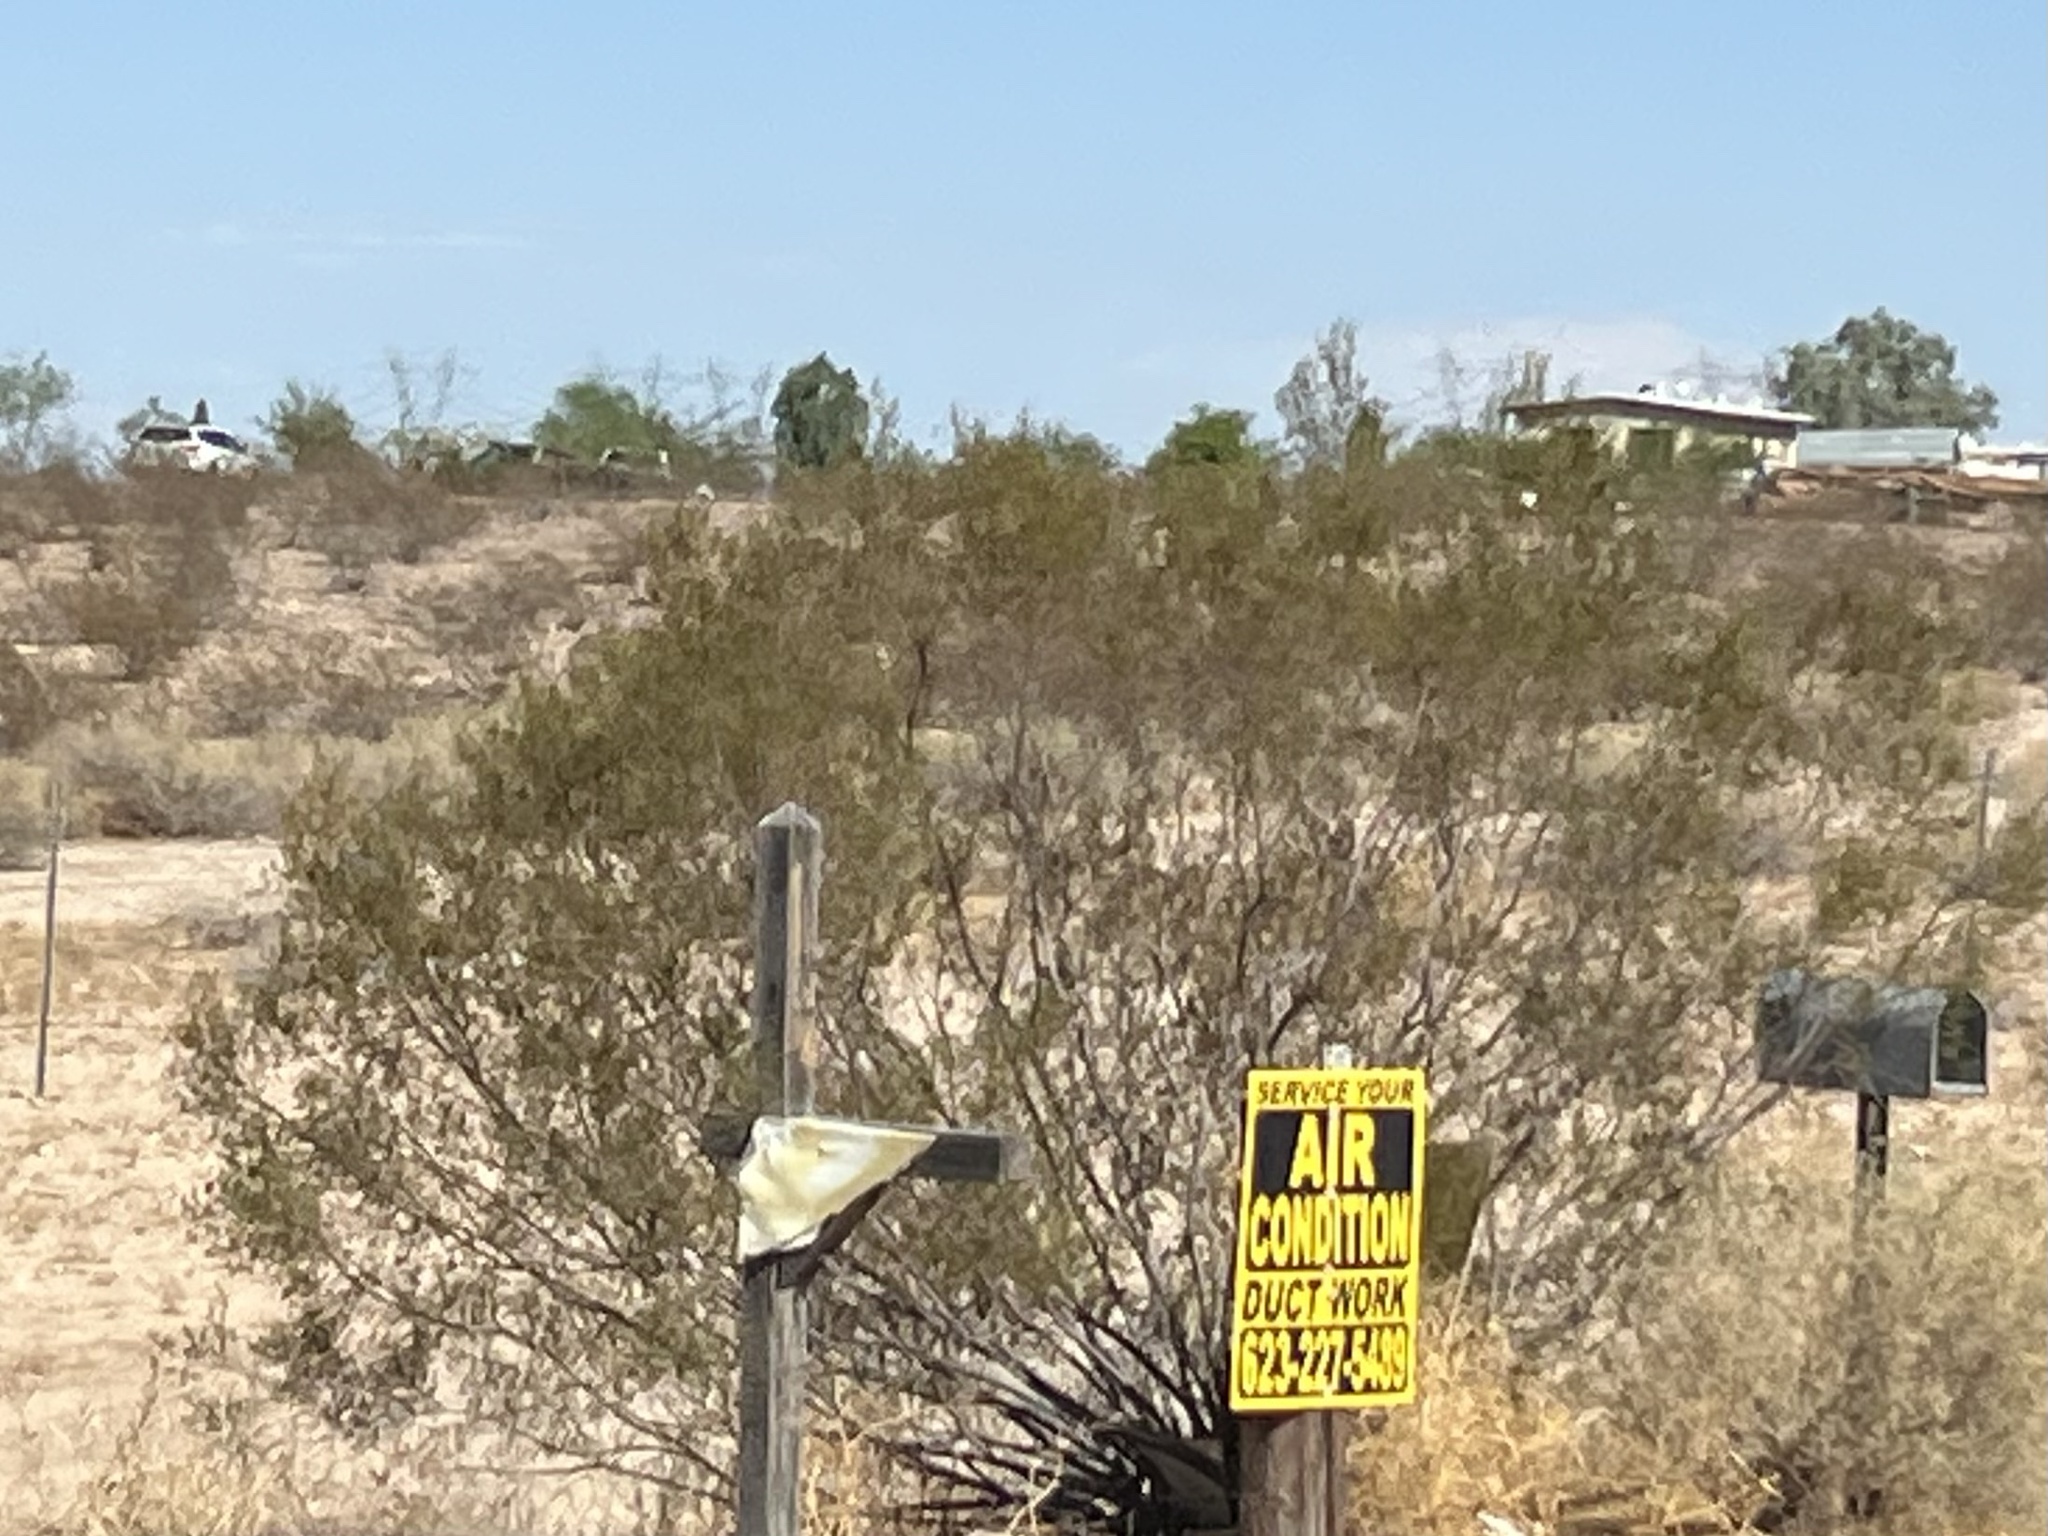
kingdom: Plantae
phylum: Tracheophyta
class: Magnoliopsida
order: Zygophyllales
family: Zygophyllaceae
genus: Larrea
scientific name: Larrea tridentata
